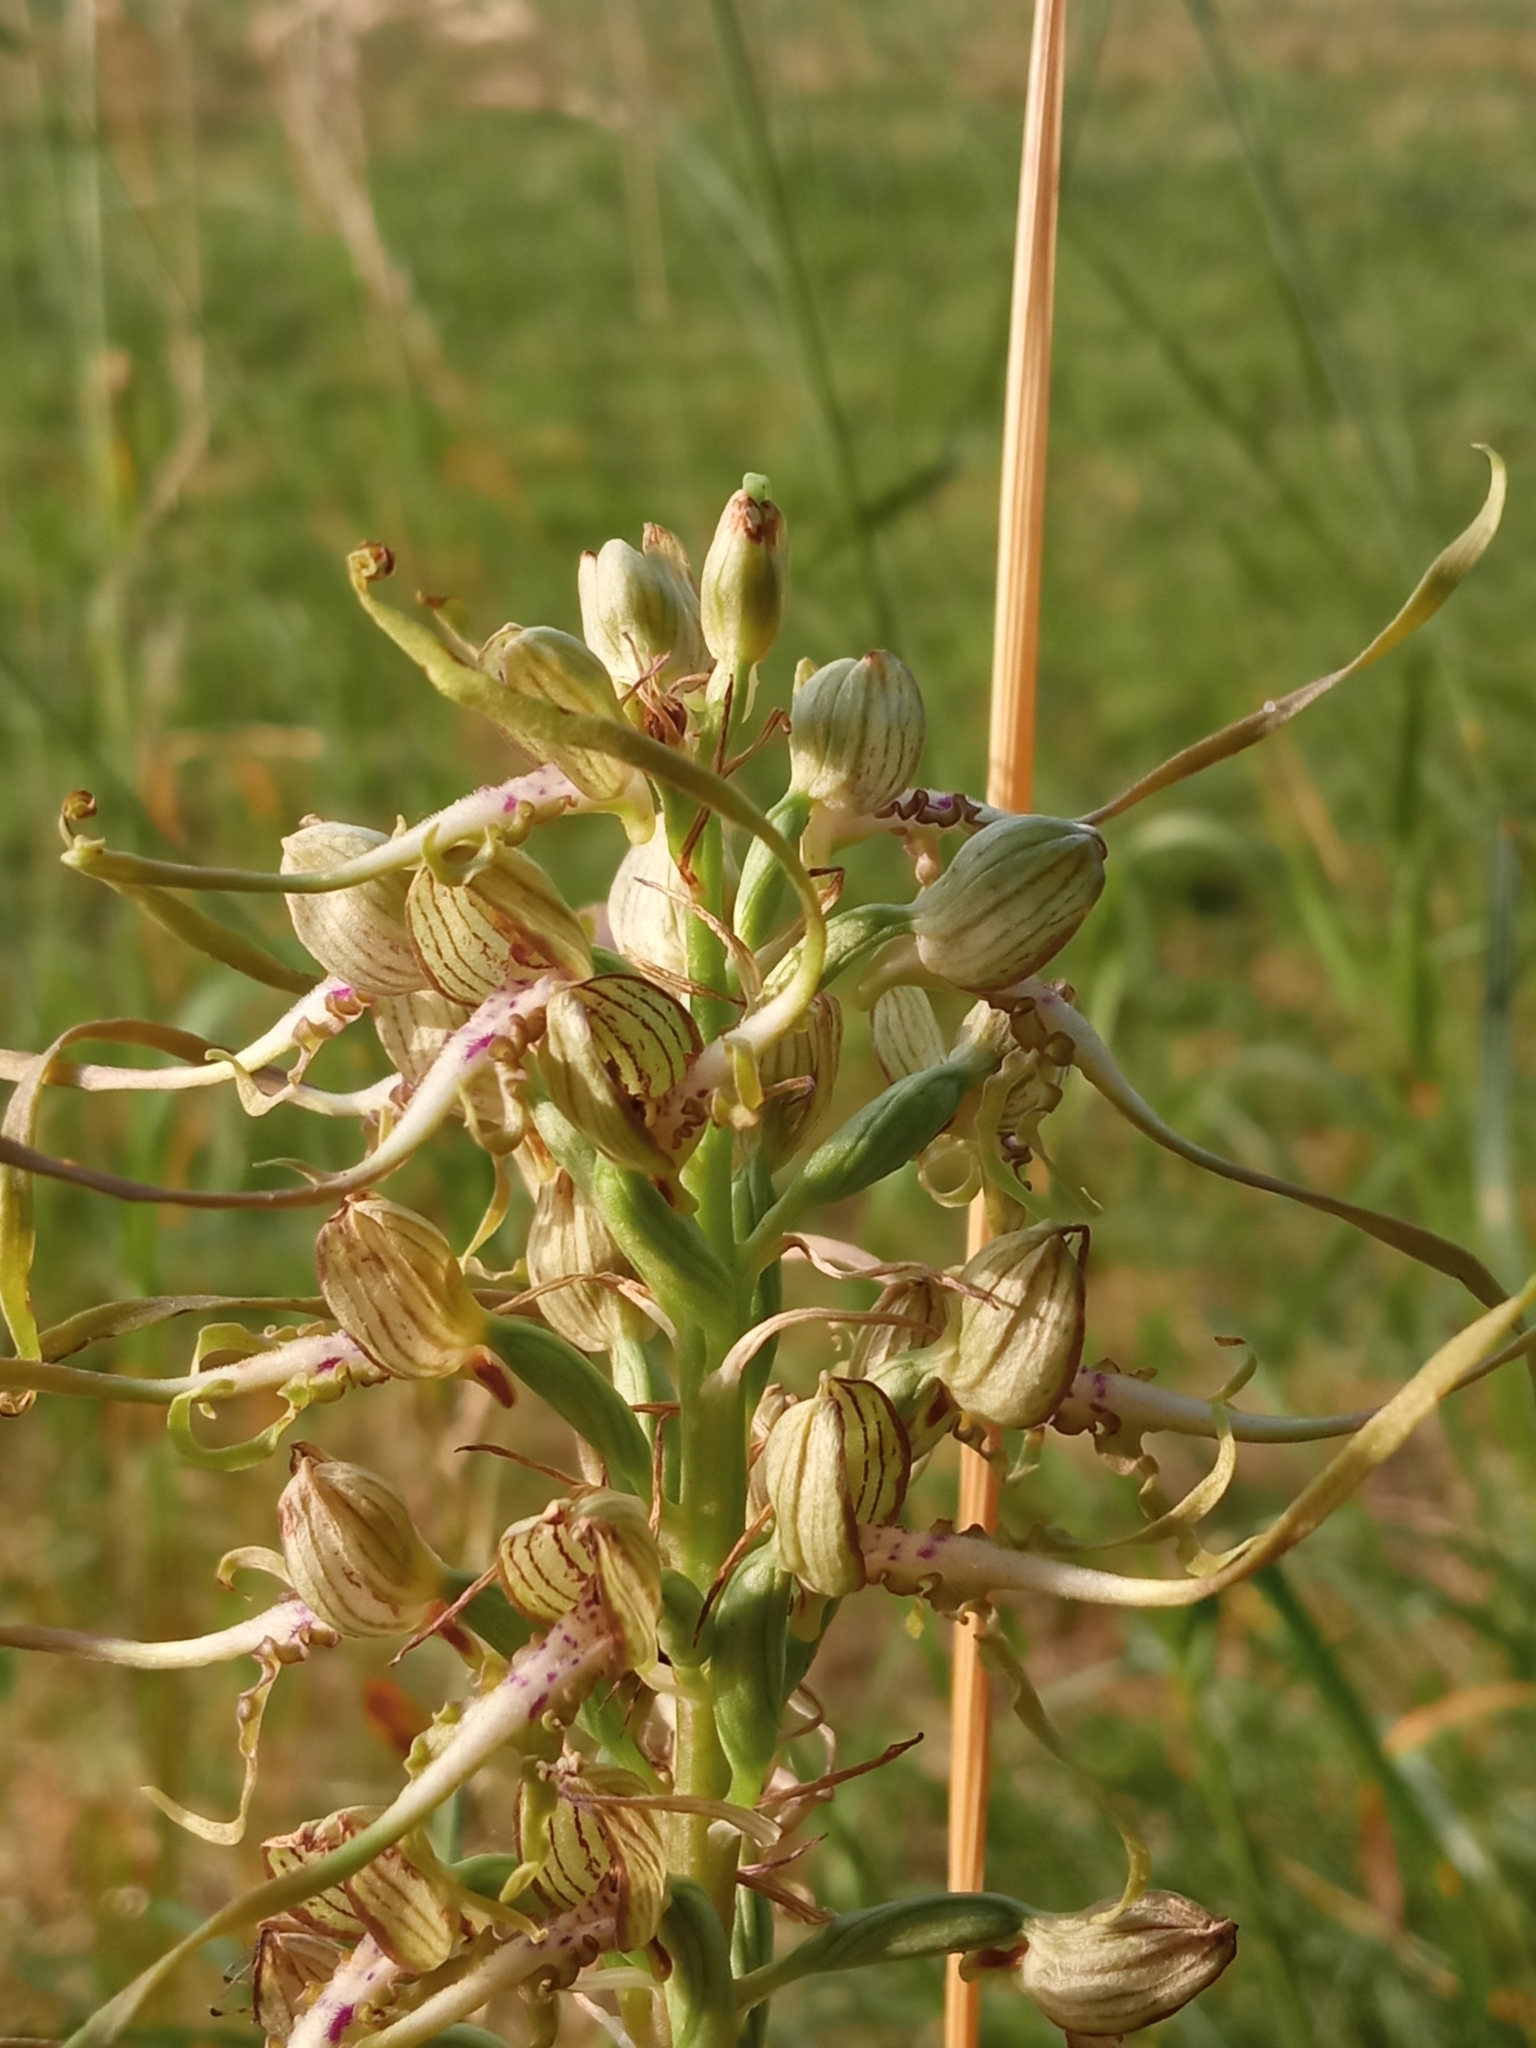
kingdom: Plantae
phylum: Tracheophyta
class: Liliopsida
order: Asparagales
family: Orchidaceae
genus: Himantoglossum
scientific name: Himantoglossum hircinum
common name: Lizard orchid
